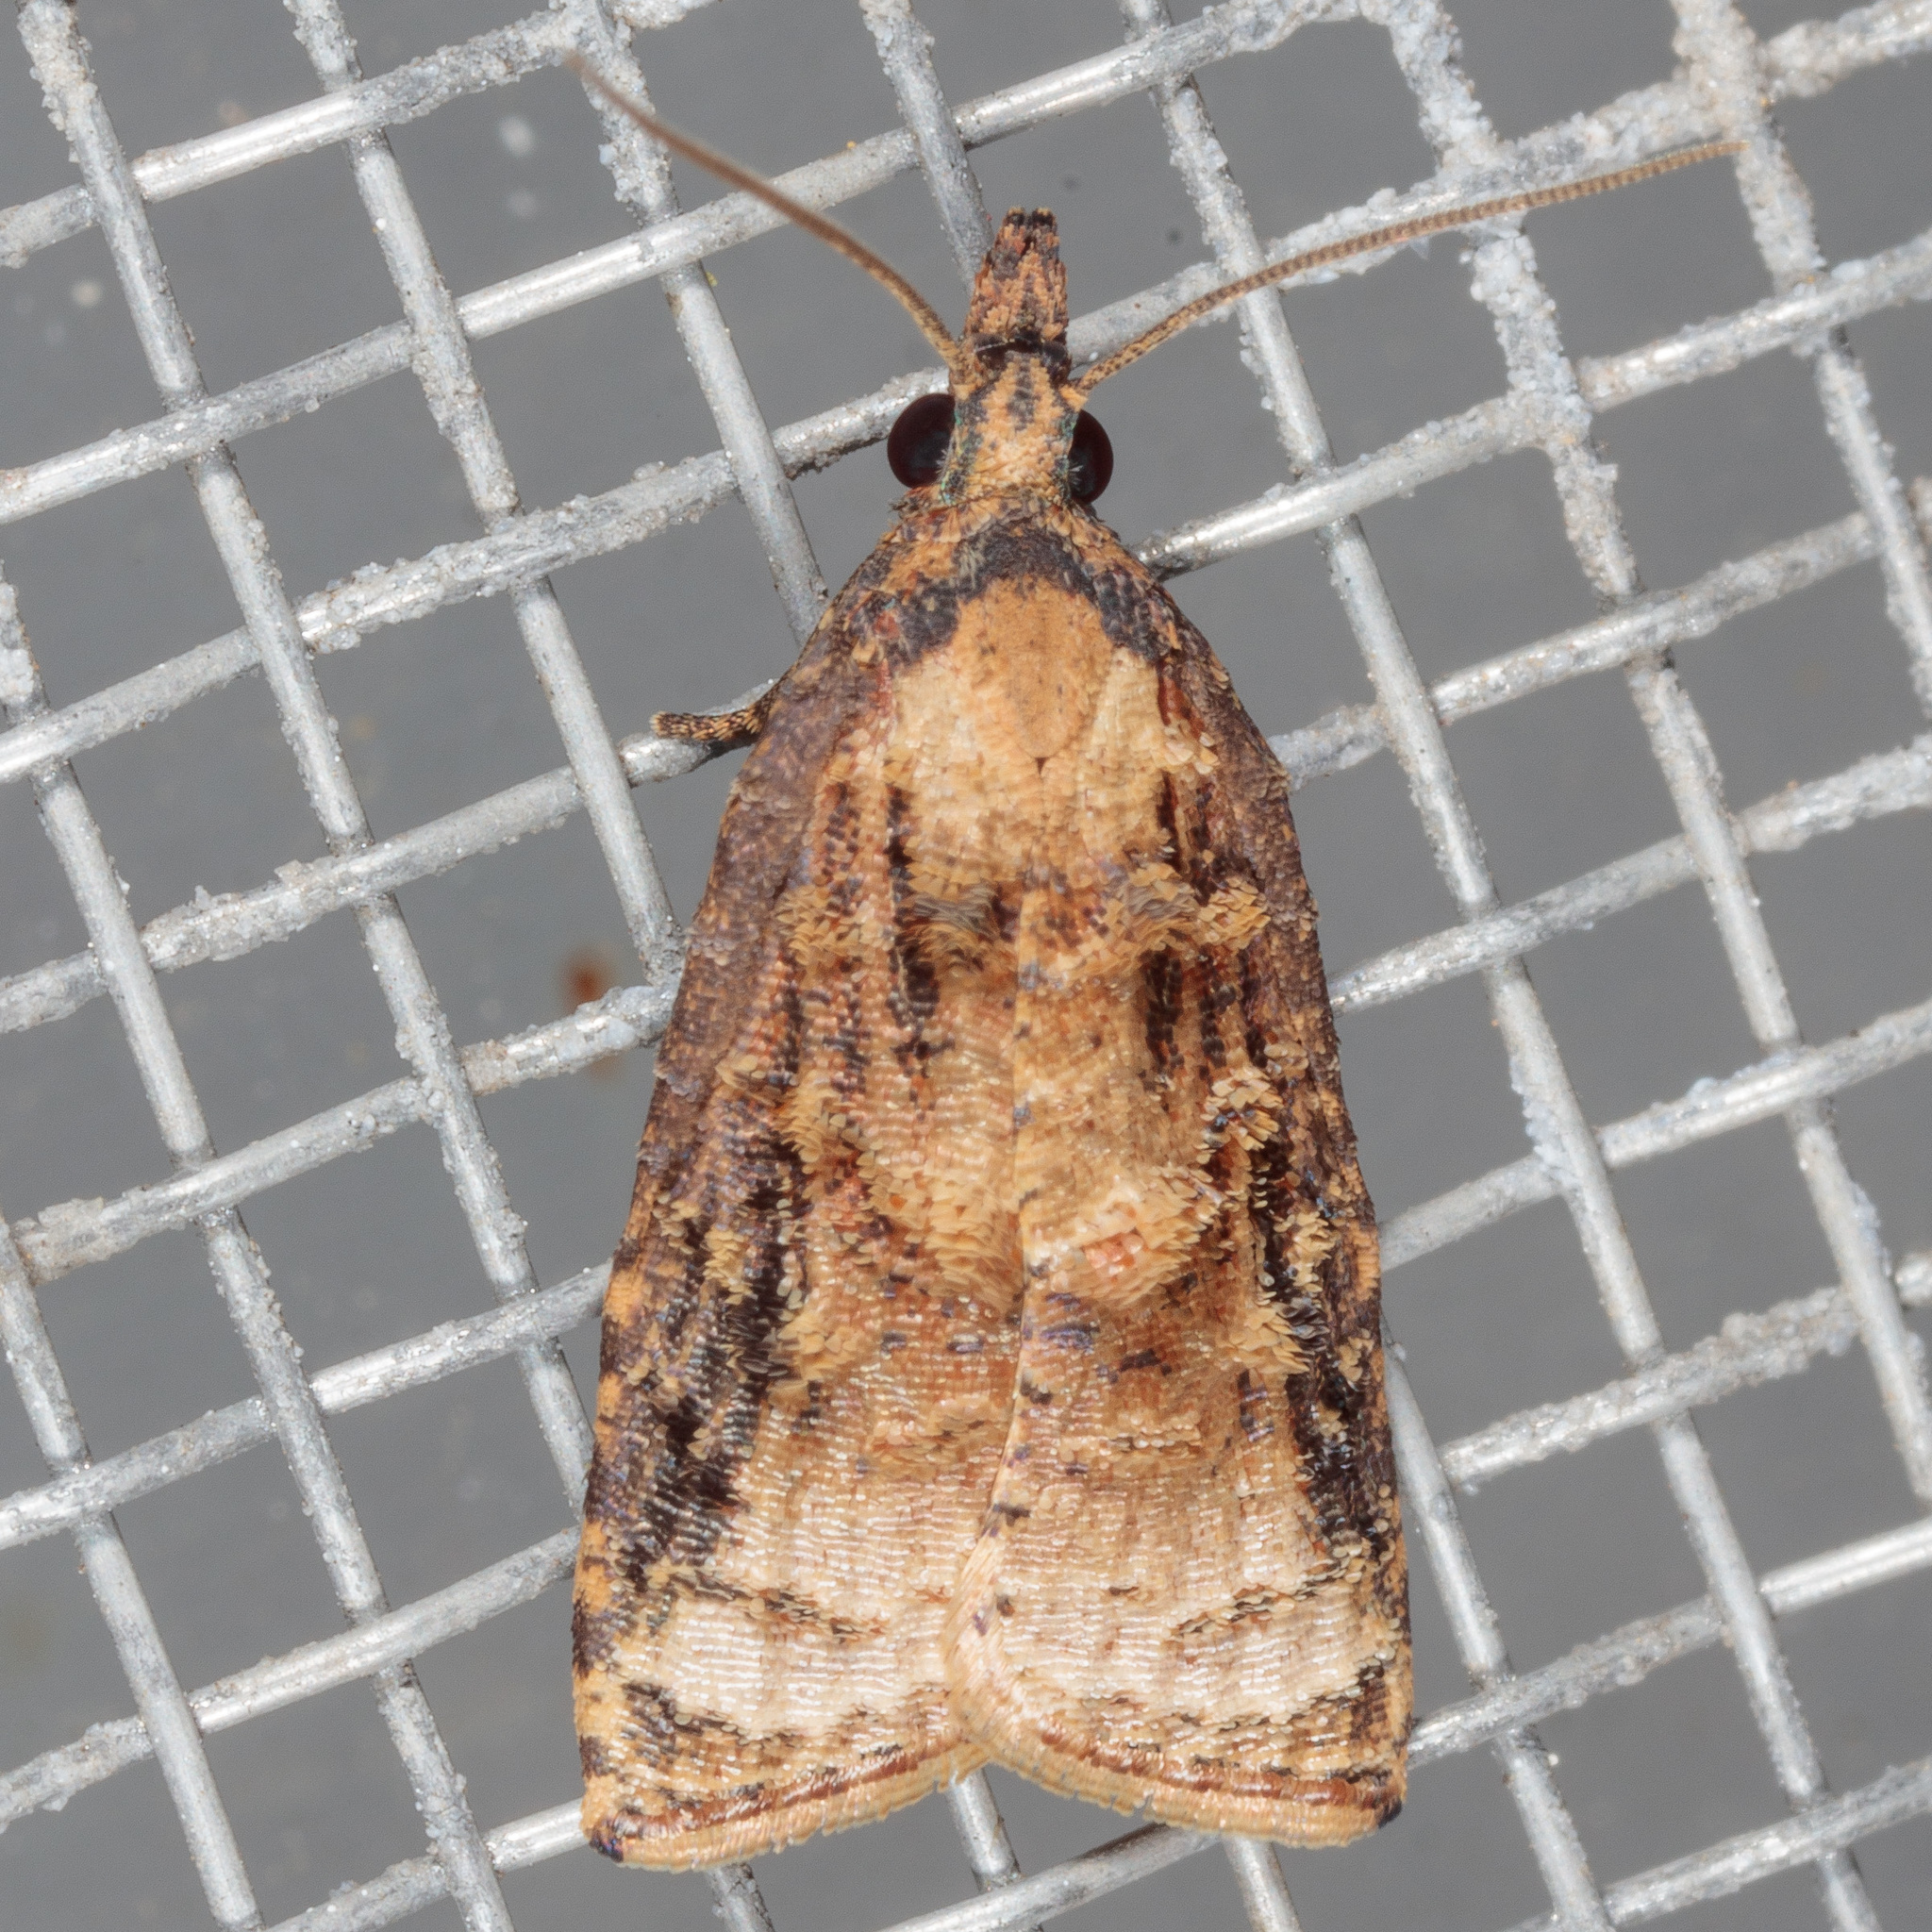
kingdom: Animalia
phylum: Arthropoda
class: Insecta
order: Lepidoptera
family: Tortricidae
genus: Platynota
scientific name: Platynota rostrana
